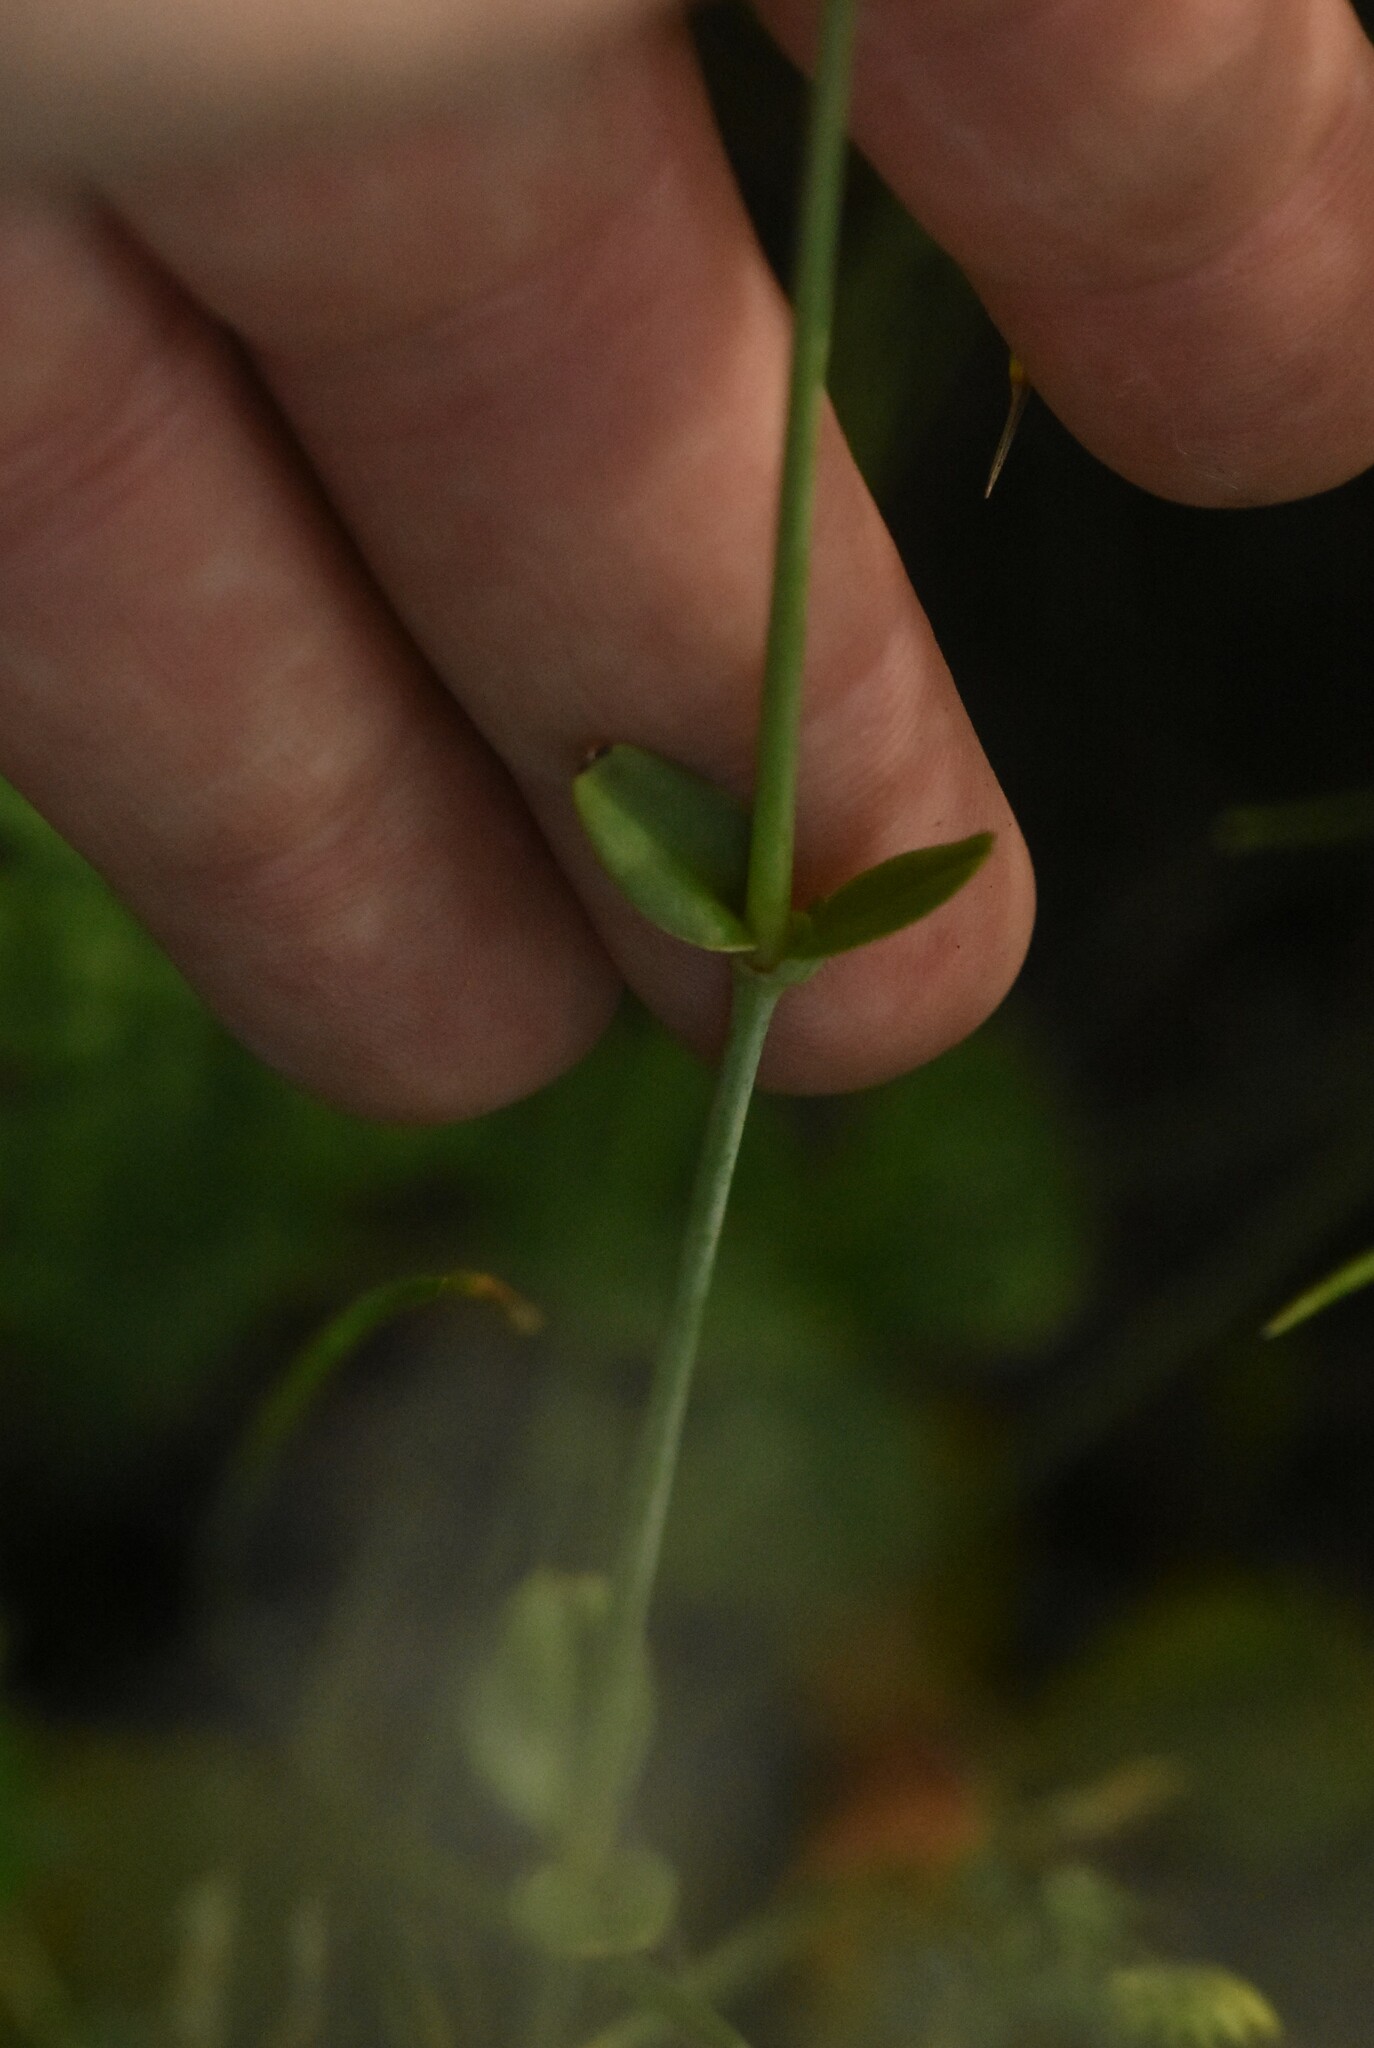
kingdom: Plantae
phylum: Tracheophyta
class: Magnoliopsida
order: Caryophyllales
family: Caryophyllaceae
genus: Gypsophila
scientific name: Gypsophila altissima
